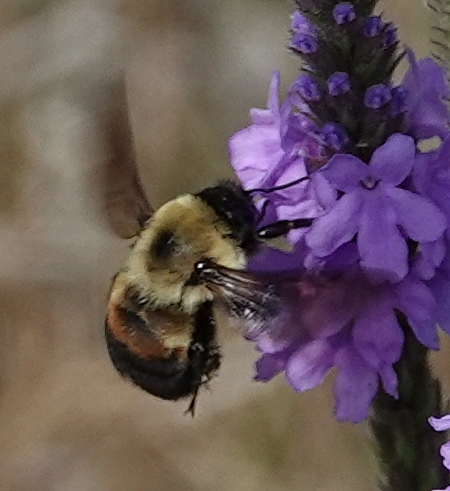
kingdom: Animalia
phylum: Arthropoda
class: Insecta
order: Hymenoptera
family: Apidae
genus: Bombus
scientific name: Bombus griseocollis
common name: Brown-belted bumble bee
